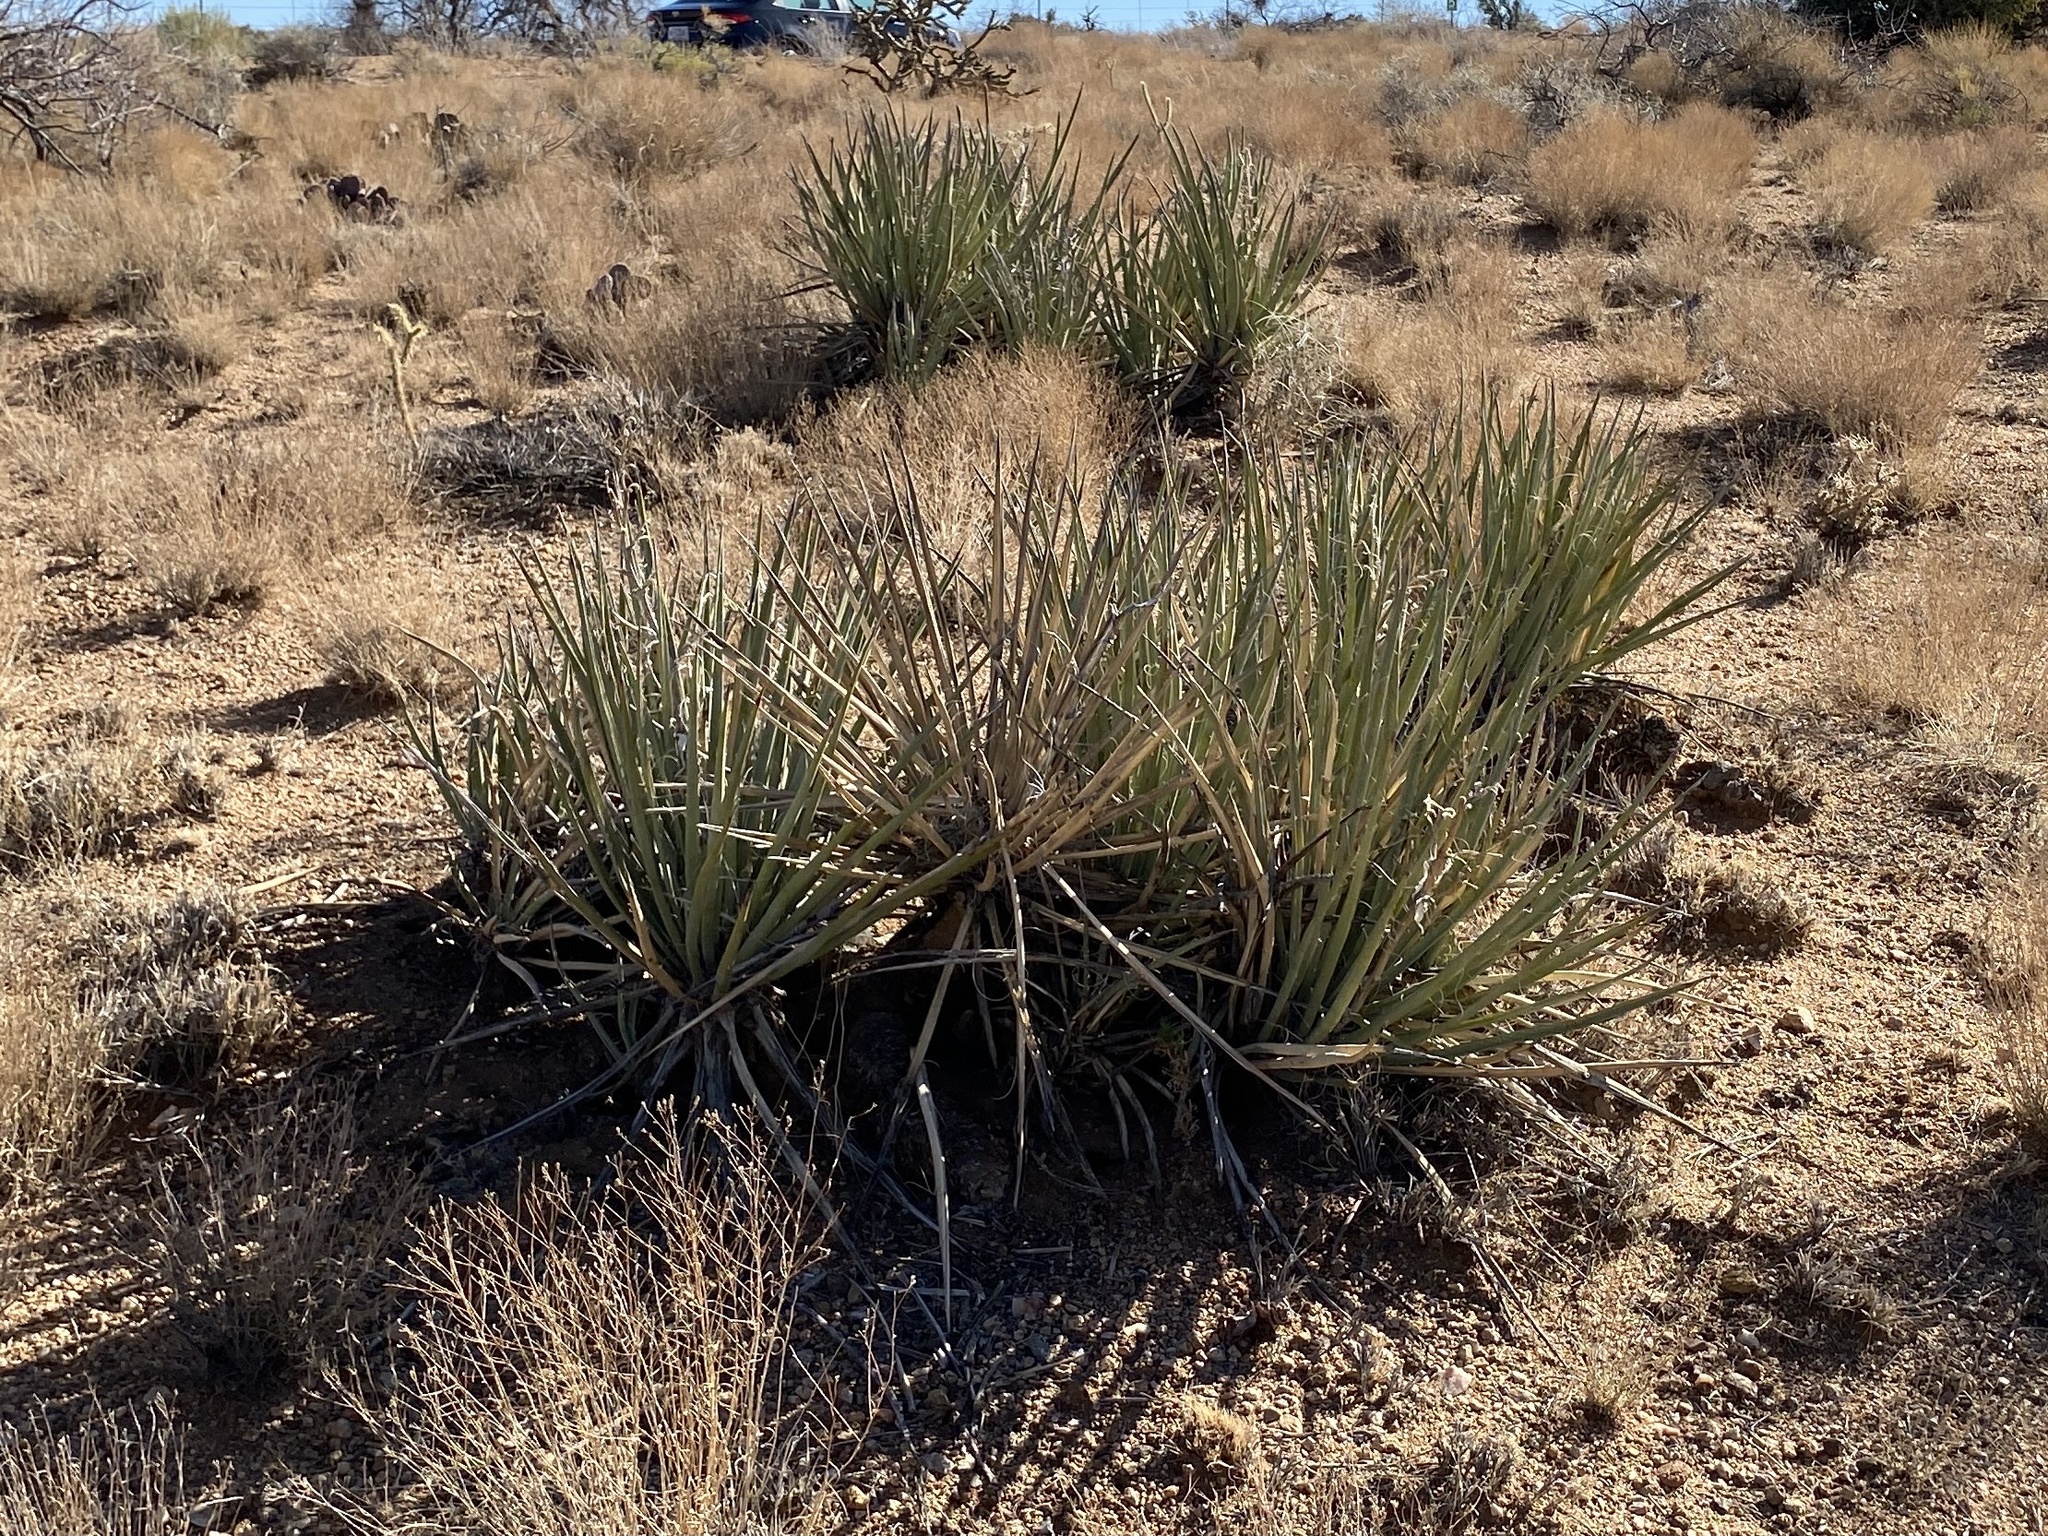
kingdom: Plantae
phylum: Tracheophyta
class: Liliopsida
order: Asparagales
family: Asparagaceae
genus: Yucca
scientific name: Yucca baccata
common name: Banana yucca
